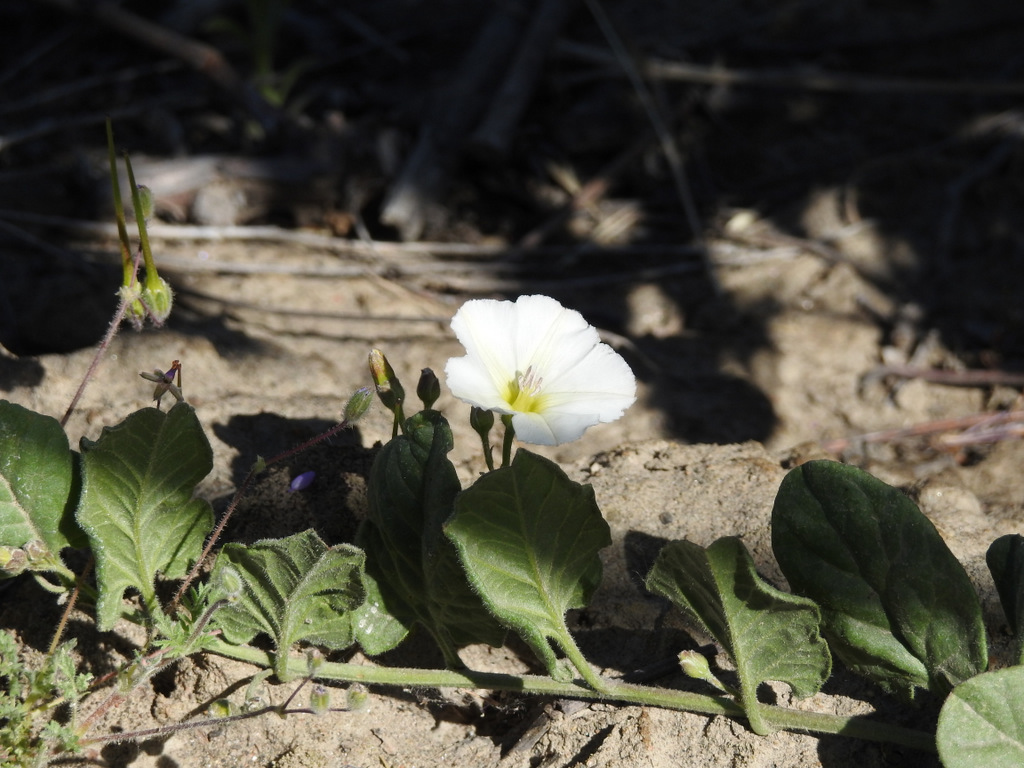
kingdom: Plantae
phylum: Tracheophyta
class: Magnoliopsida
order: Solanales
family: Convolvulaceae
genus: Convolvulus
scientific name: Convolvulus arvensis
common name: Field bindweed
